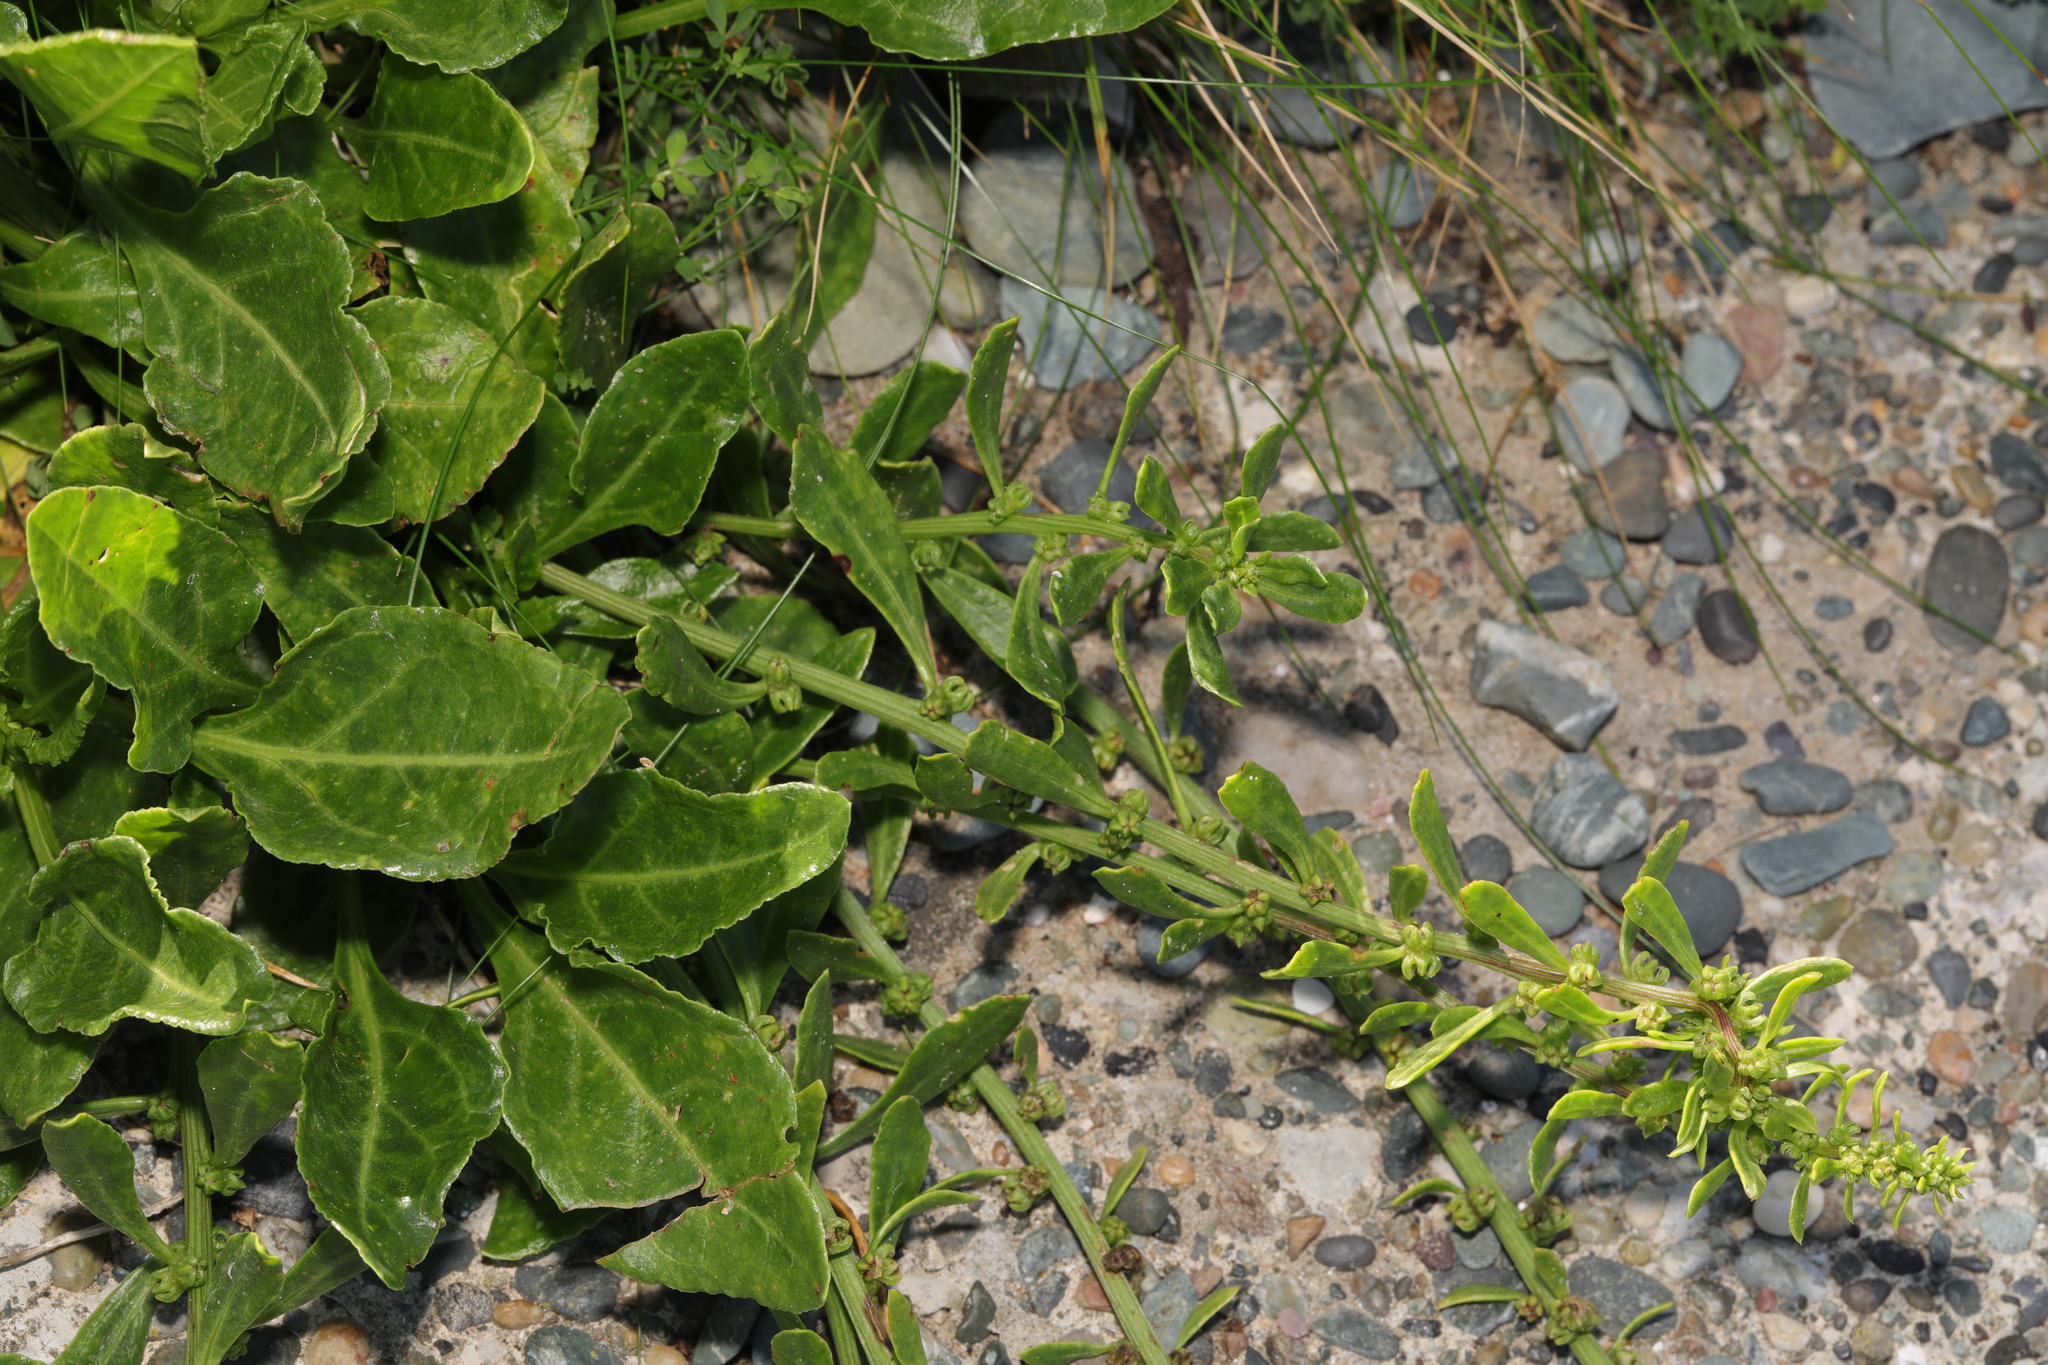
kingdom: Plantae
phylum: Tracheophyta
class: Magnoliopsida
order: Caryophyllales
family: Amaranthaceae
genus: Beta
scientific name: Beta vulgaris
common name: Beet
